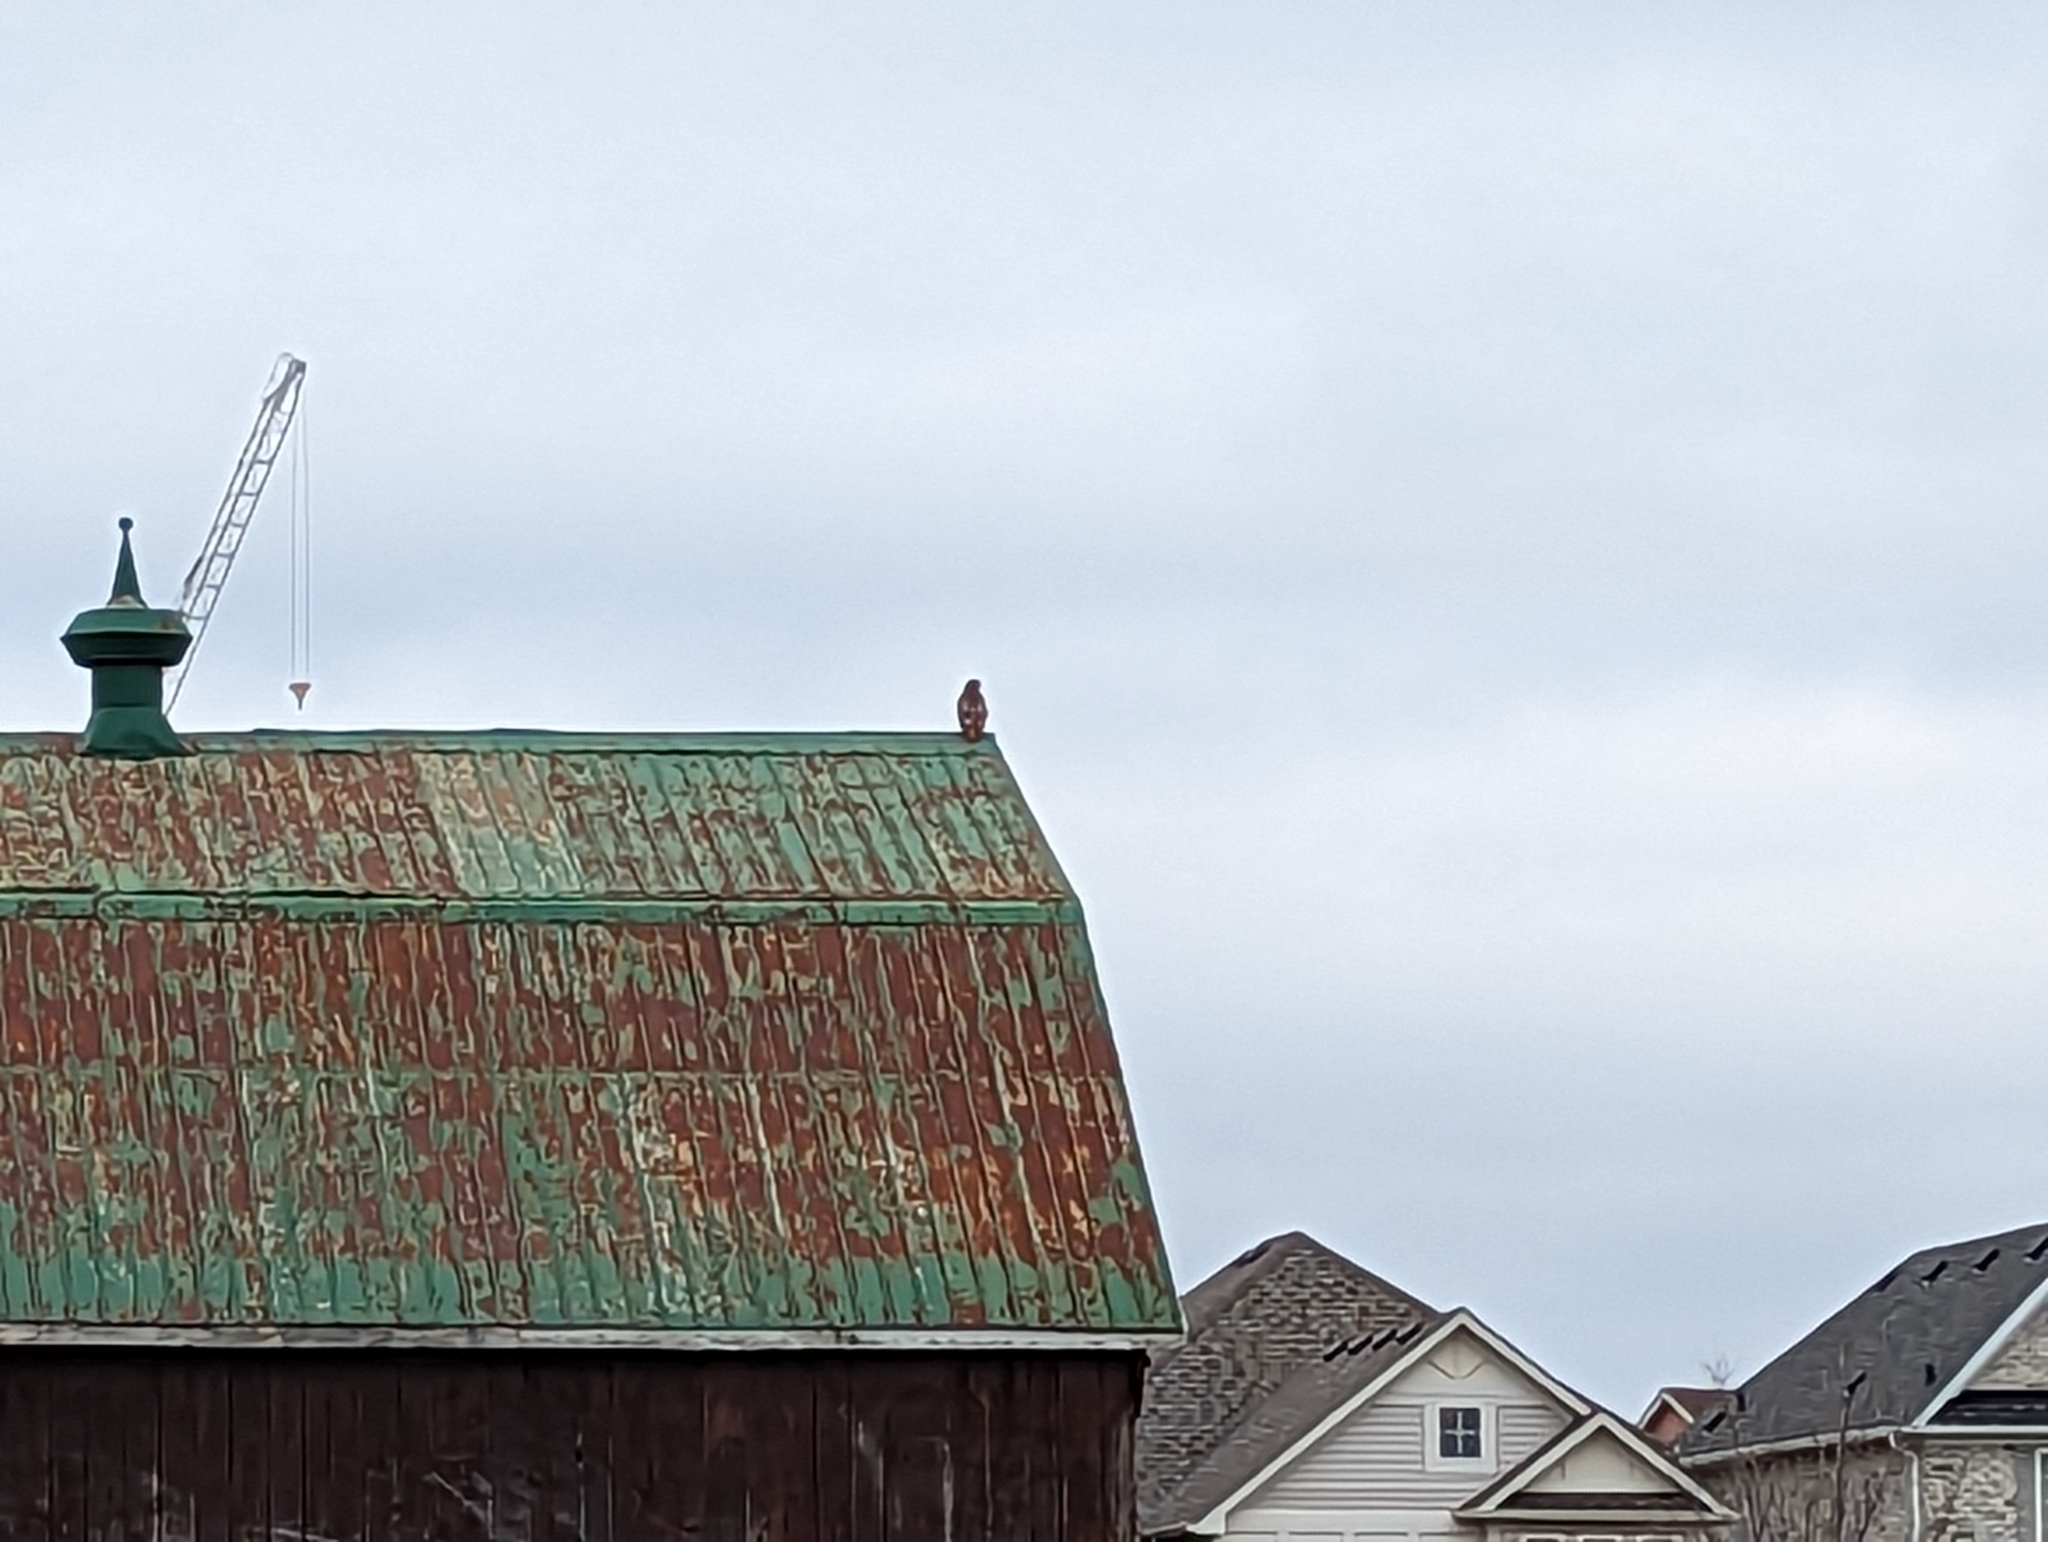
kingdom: Animalia
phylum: Chordata
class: Aves
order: Accipitriformes
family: Accipitridae
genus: Buteo
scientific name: Buteo jamaicensis
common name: Red-tailed hawk
